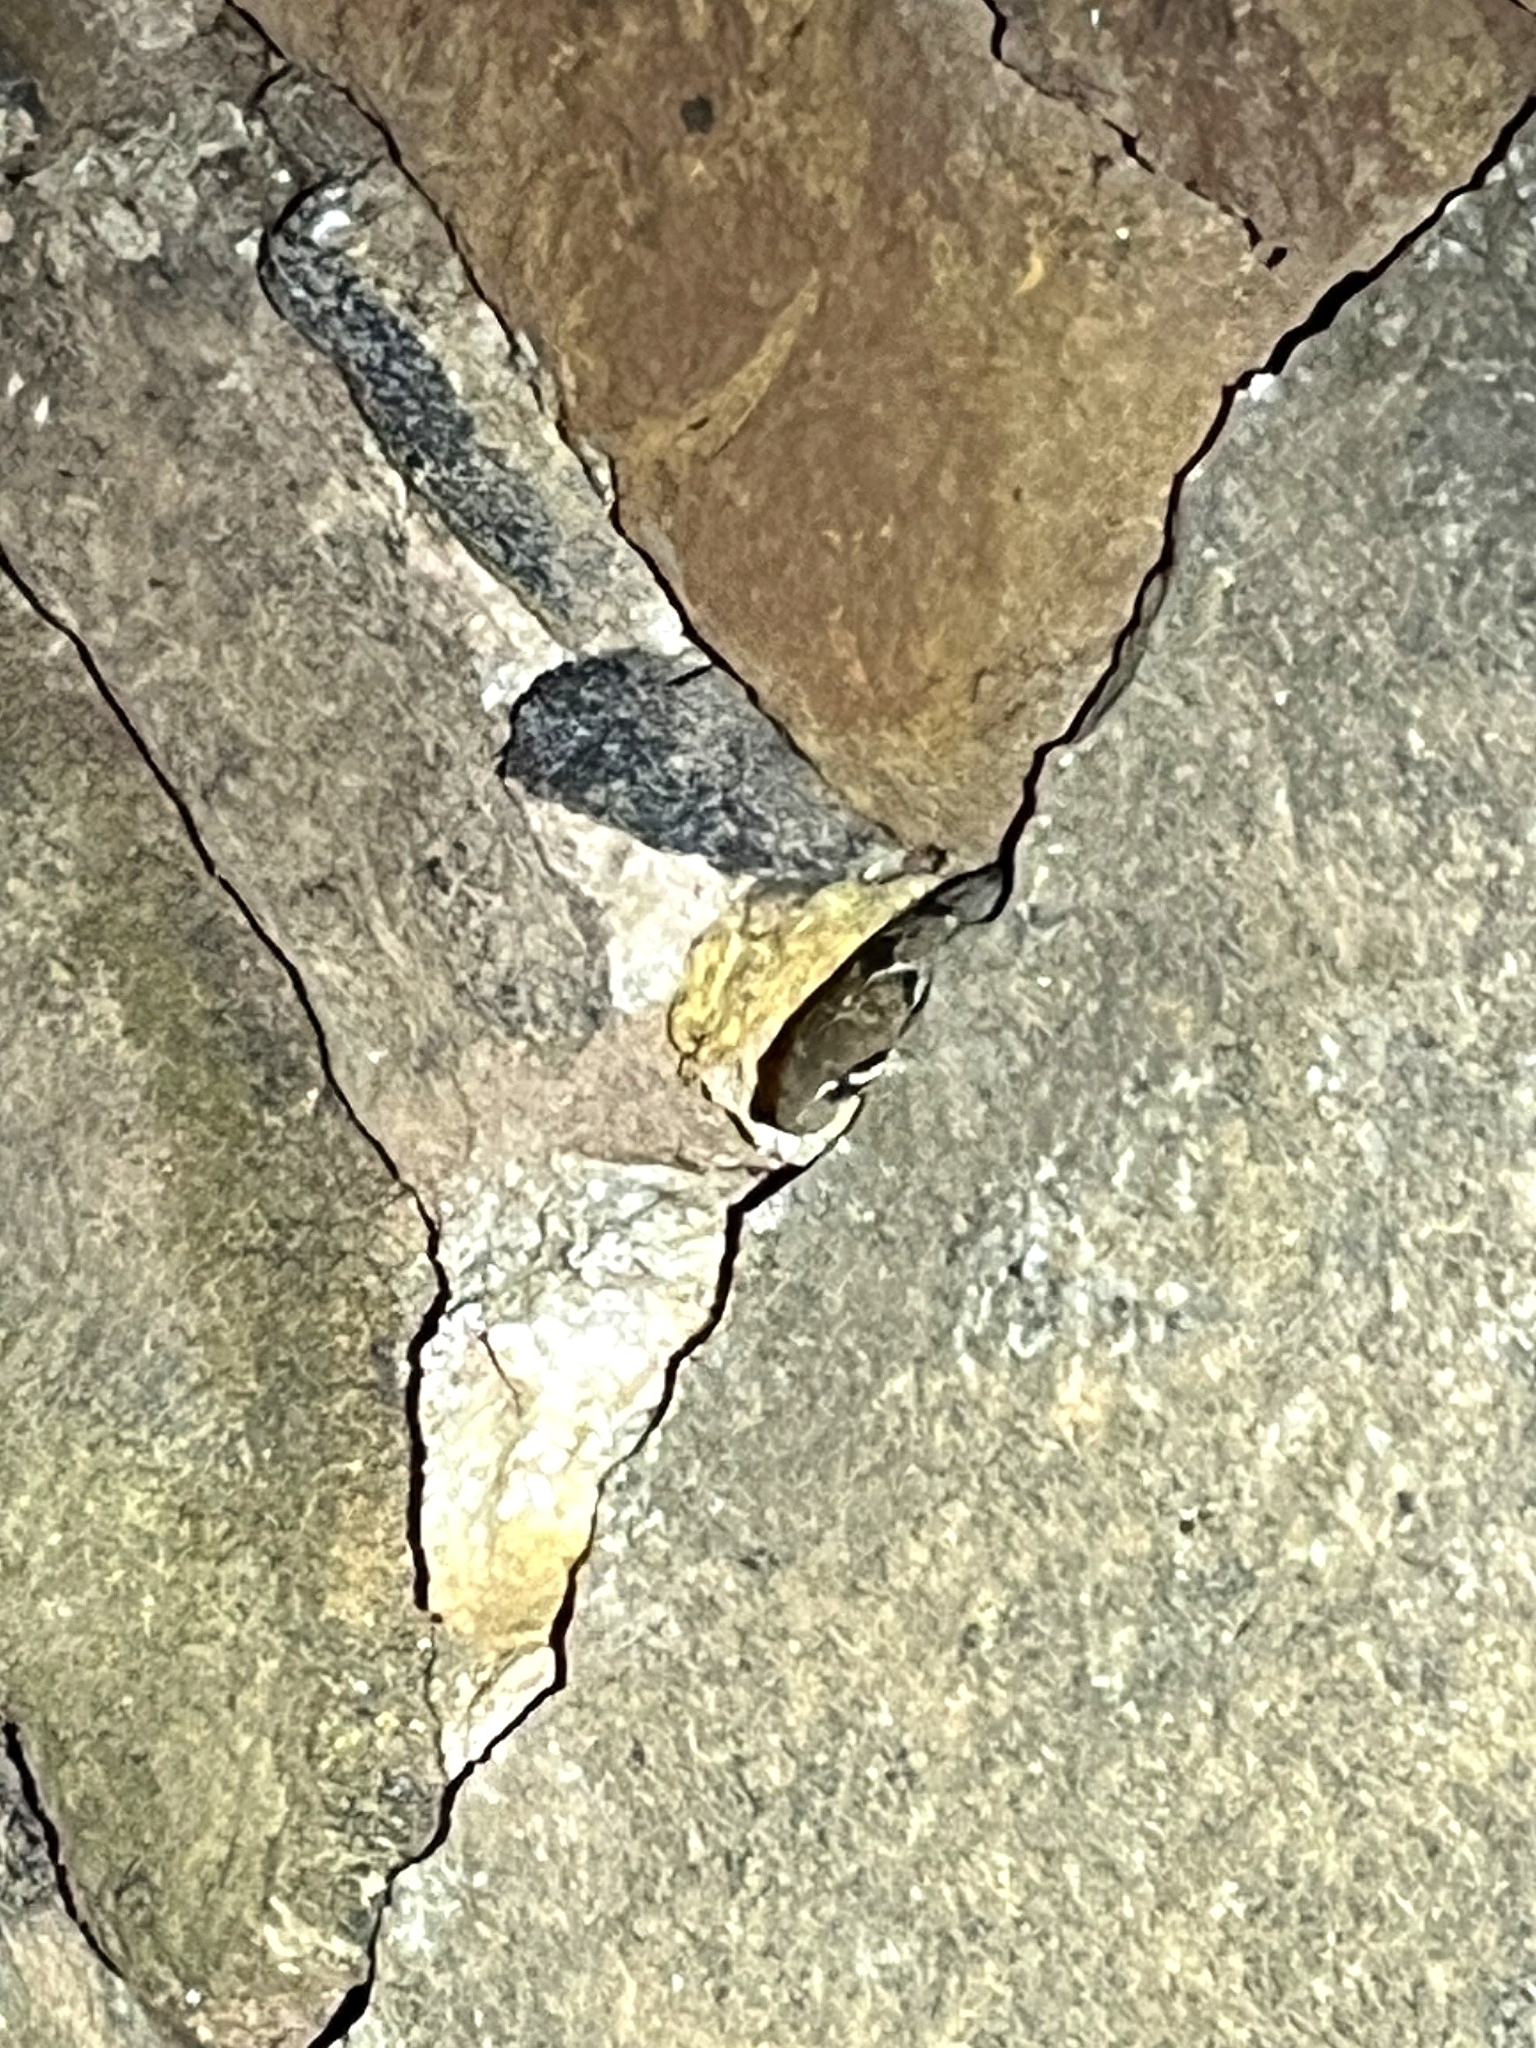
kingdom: Animalia
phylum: Chordata
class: Squamata
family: Colubridae
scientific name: Colubridae
